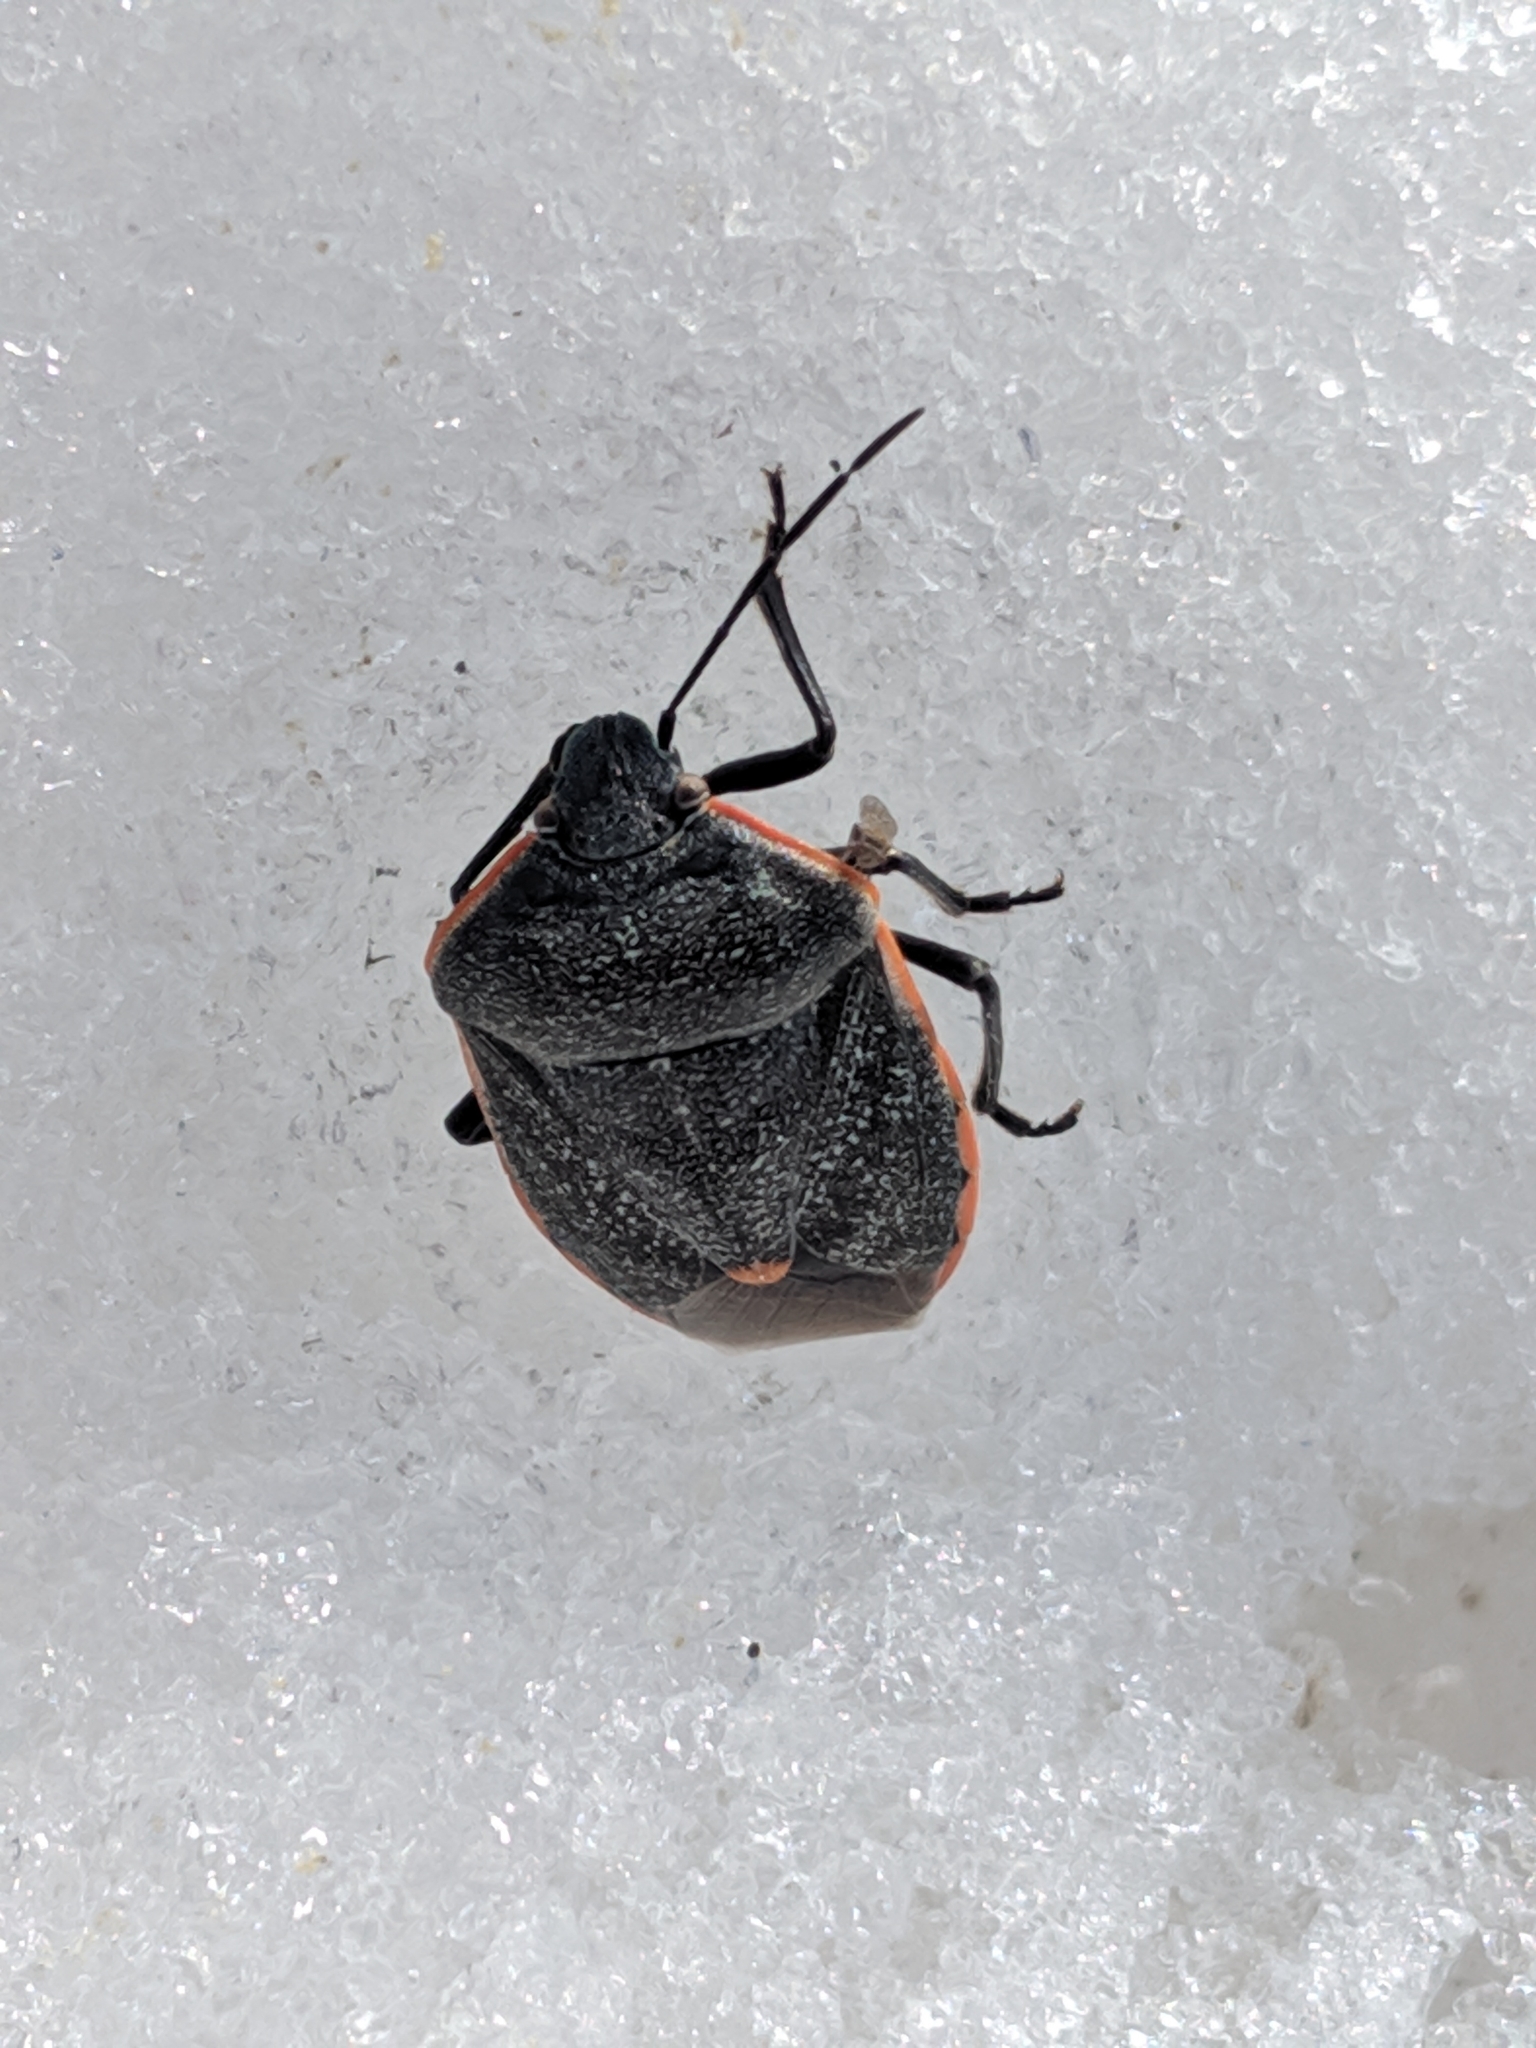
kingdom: Animalia
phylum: Arthropoda
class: Insecta
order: Hemiptera
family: Pentatomidae
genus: Chlorochroa
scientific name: Chlorochroa ligata
